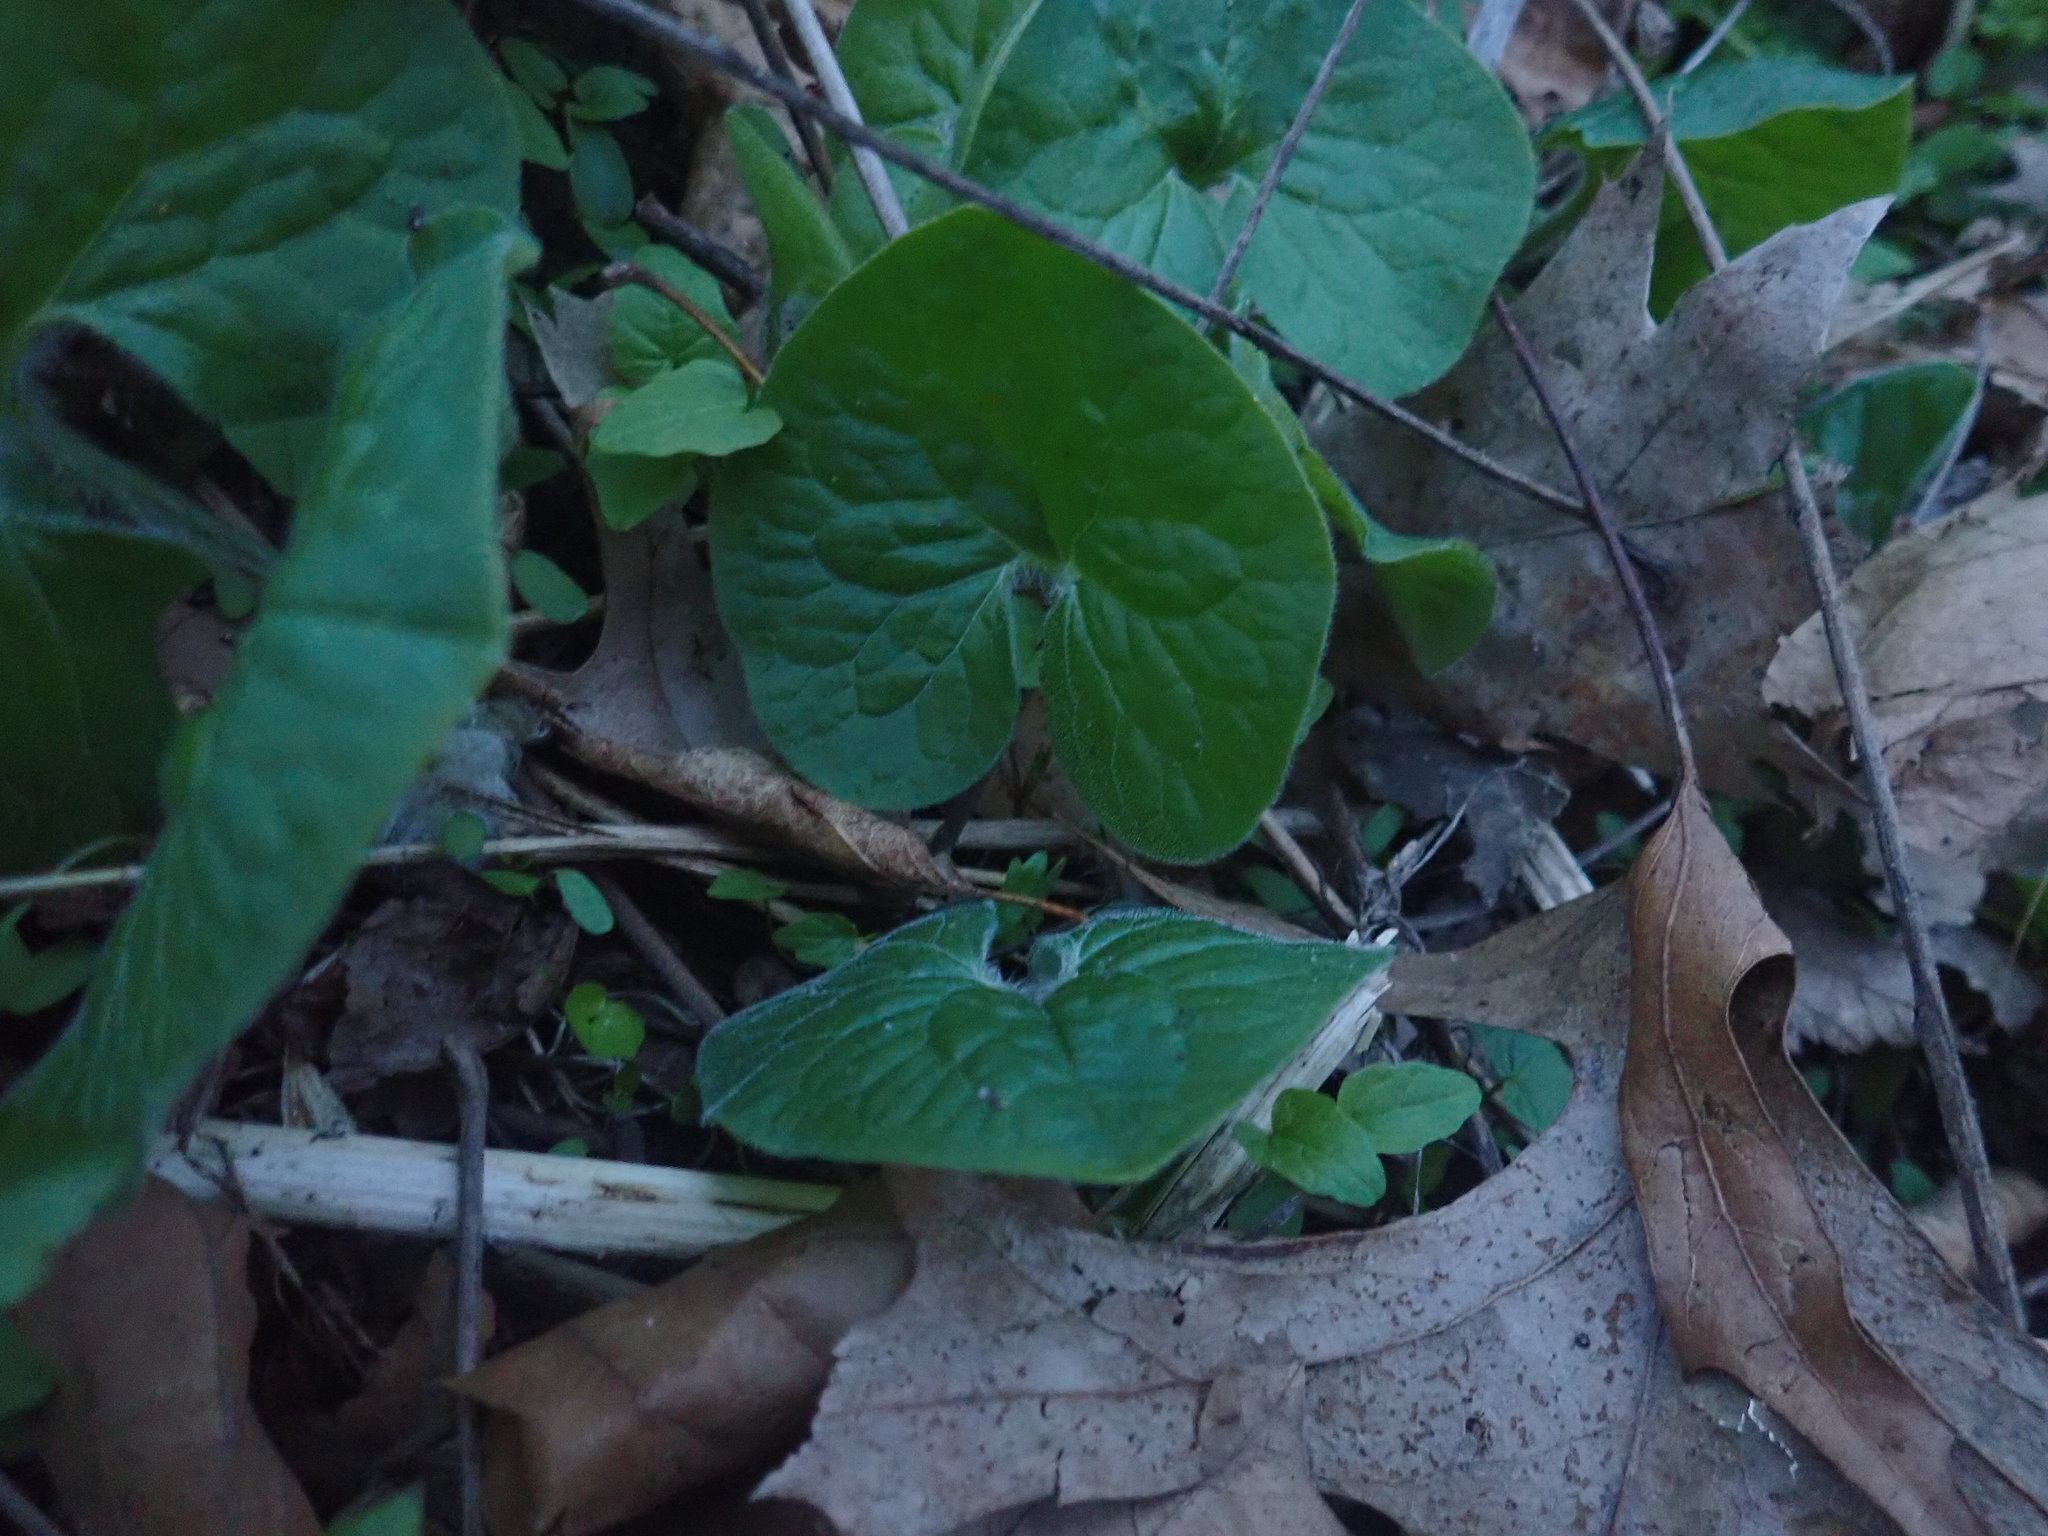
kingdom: Plantae
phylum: Tracheophyta
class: Magnoliopsida
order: Piperales
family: Aristolochiaceae
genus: Asarum
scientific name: Asarum canadense
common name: Wild ginger
